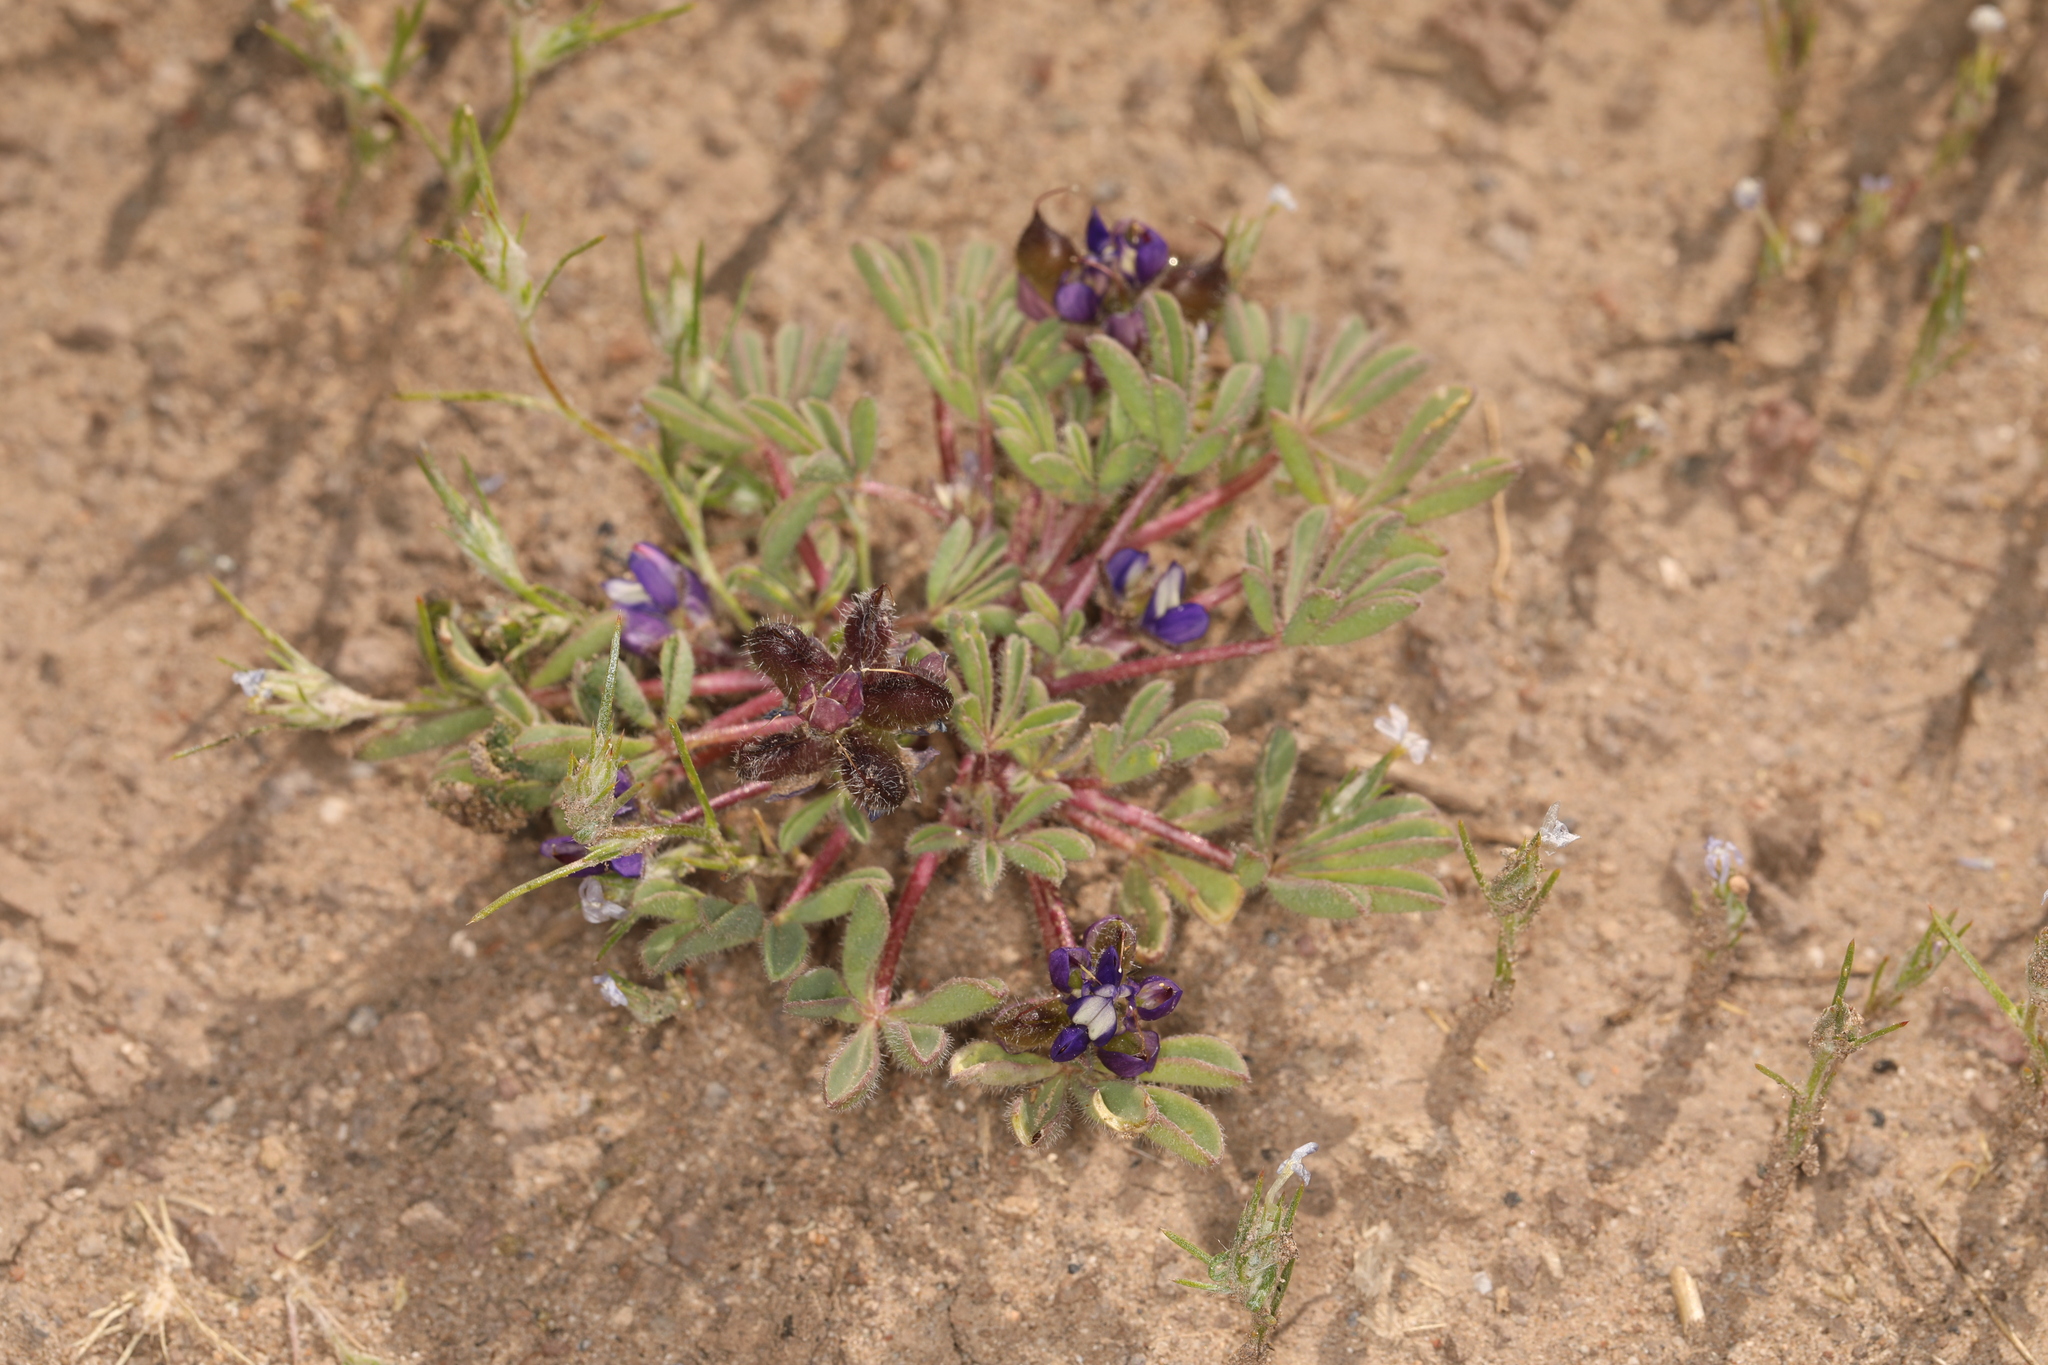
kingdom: Plantae
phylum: Tracheophyta
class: Magnoliopsida
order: Fabales
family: Fabaceae
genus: Lupinus
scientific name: Lupinus brevicaulis
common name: Sand lupine
